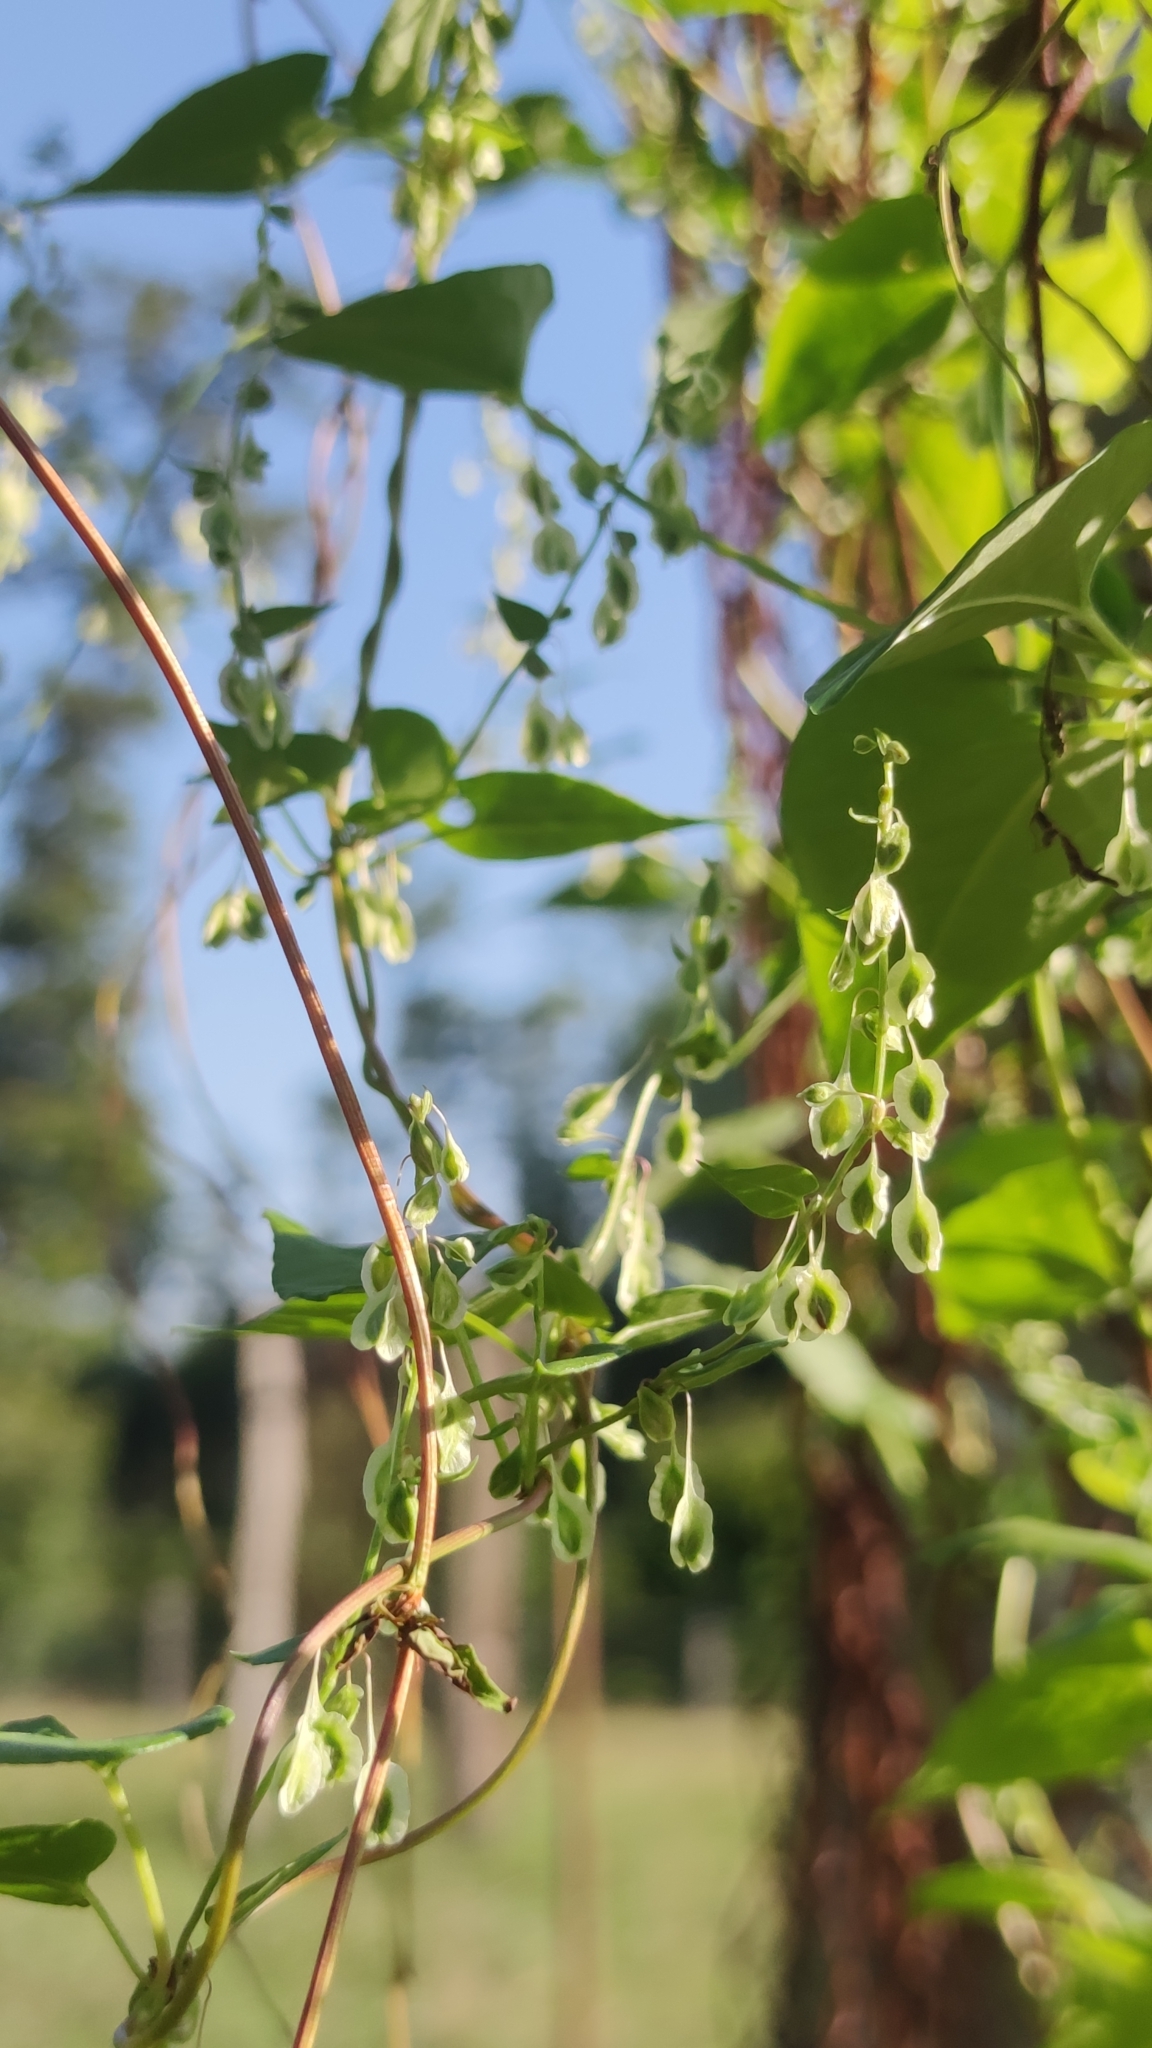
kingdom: Plantae
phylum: Tracheophyta
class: Magnoliopsida
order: Caryophyllales
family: Polygonaceae
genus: Fallopia
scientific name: Fallopia dumetorum
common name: Copse-bindweed
